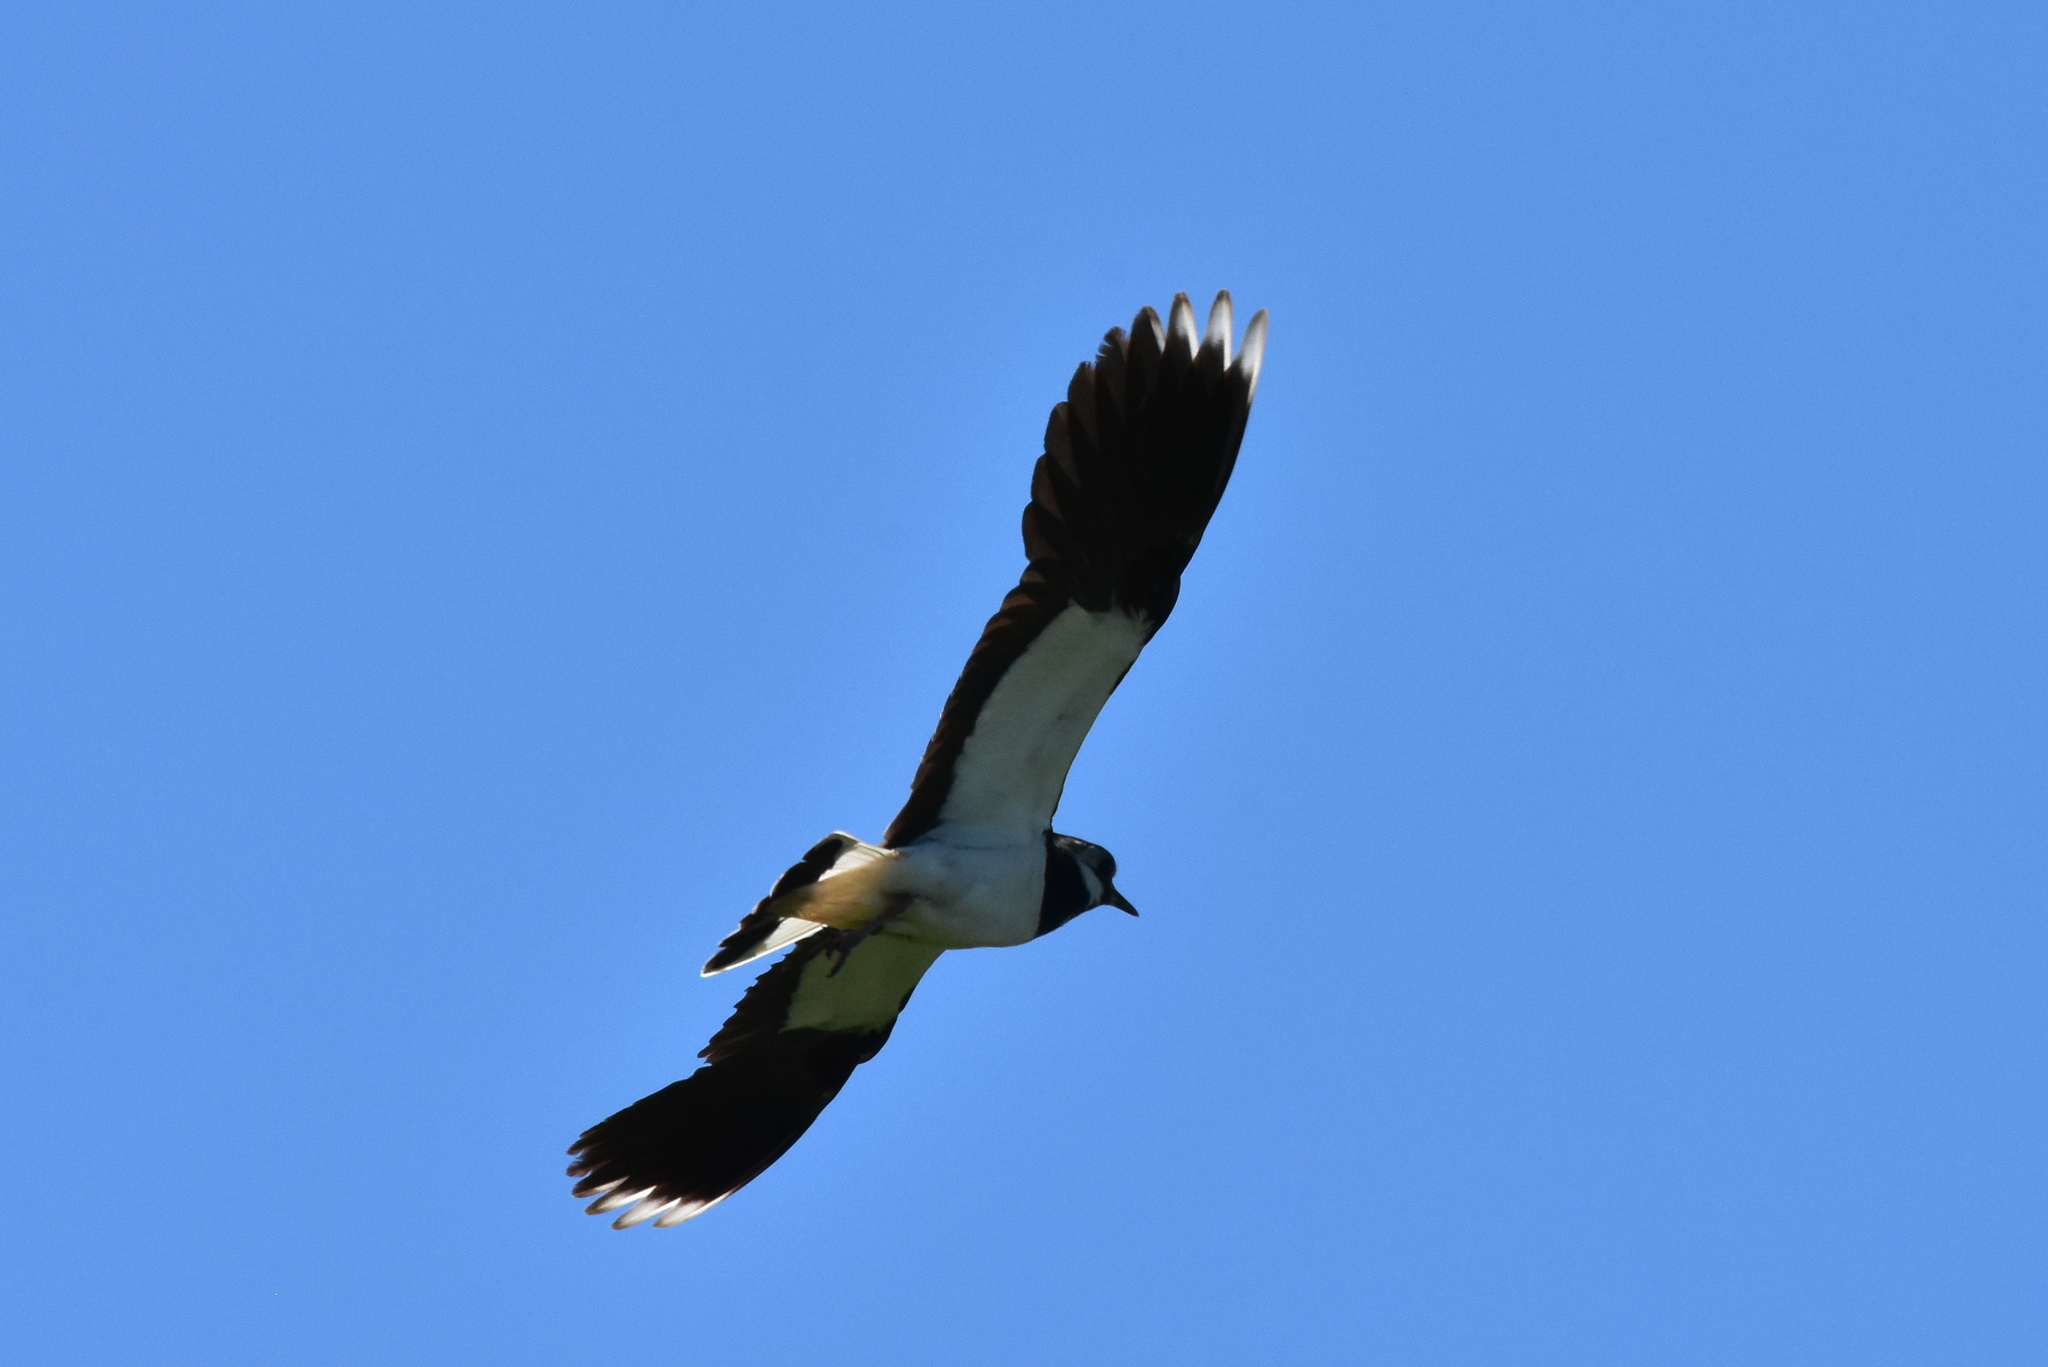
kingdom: Animalia
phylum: Chordata
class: Aves
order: Charadriiformes
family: Charadriidae
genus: Vanellus
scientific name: Vanellus vanellus
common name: Northern lapwing
